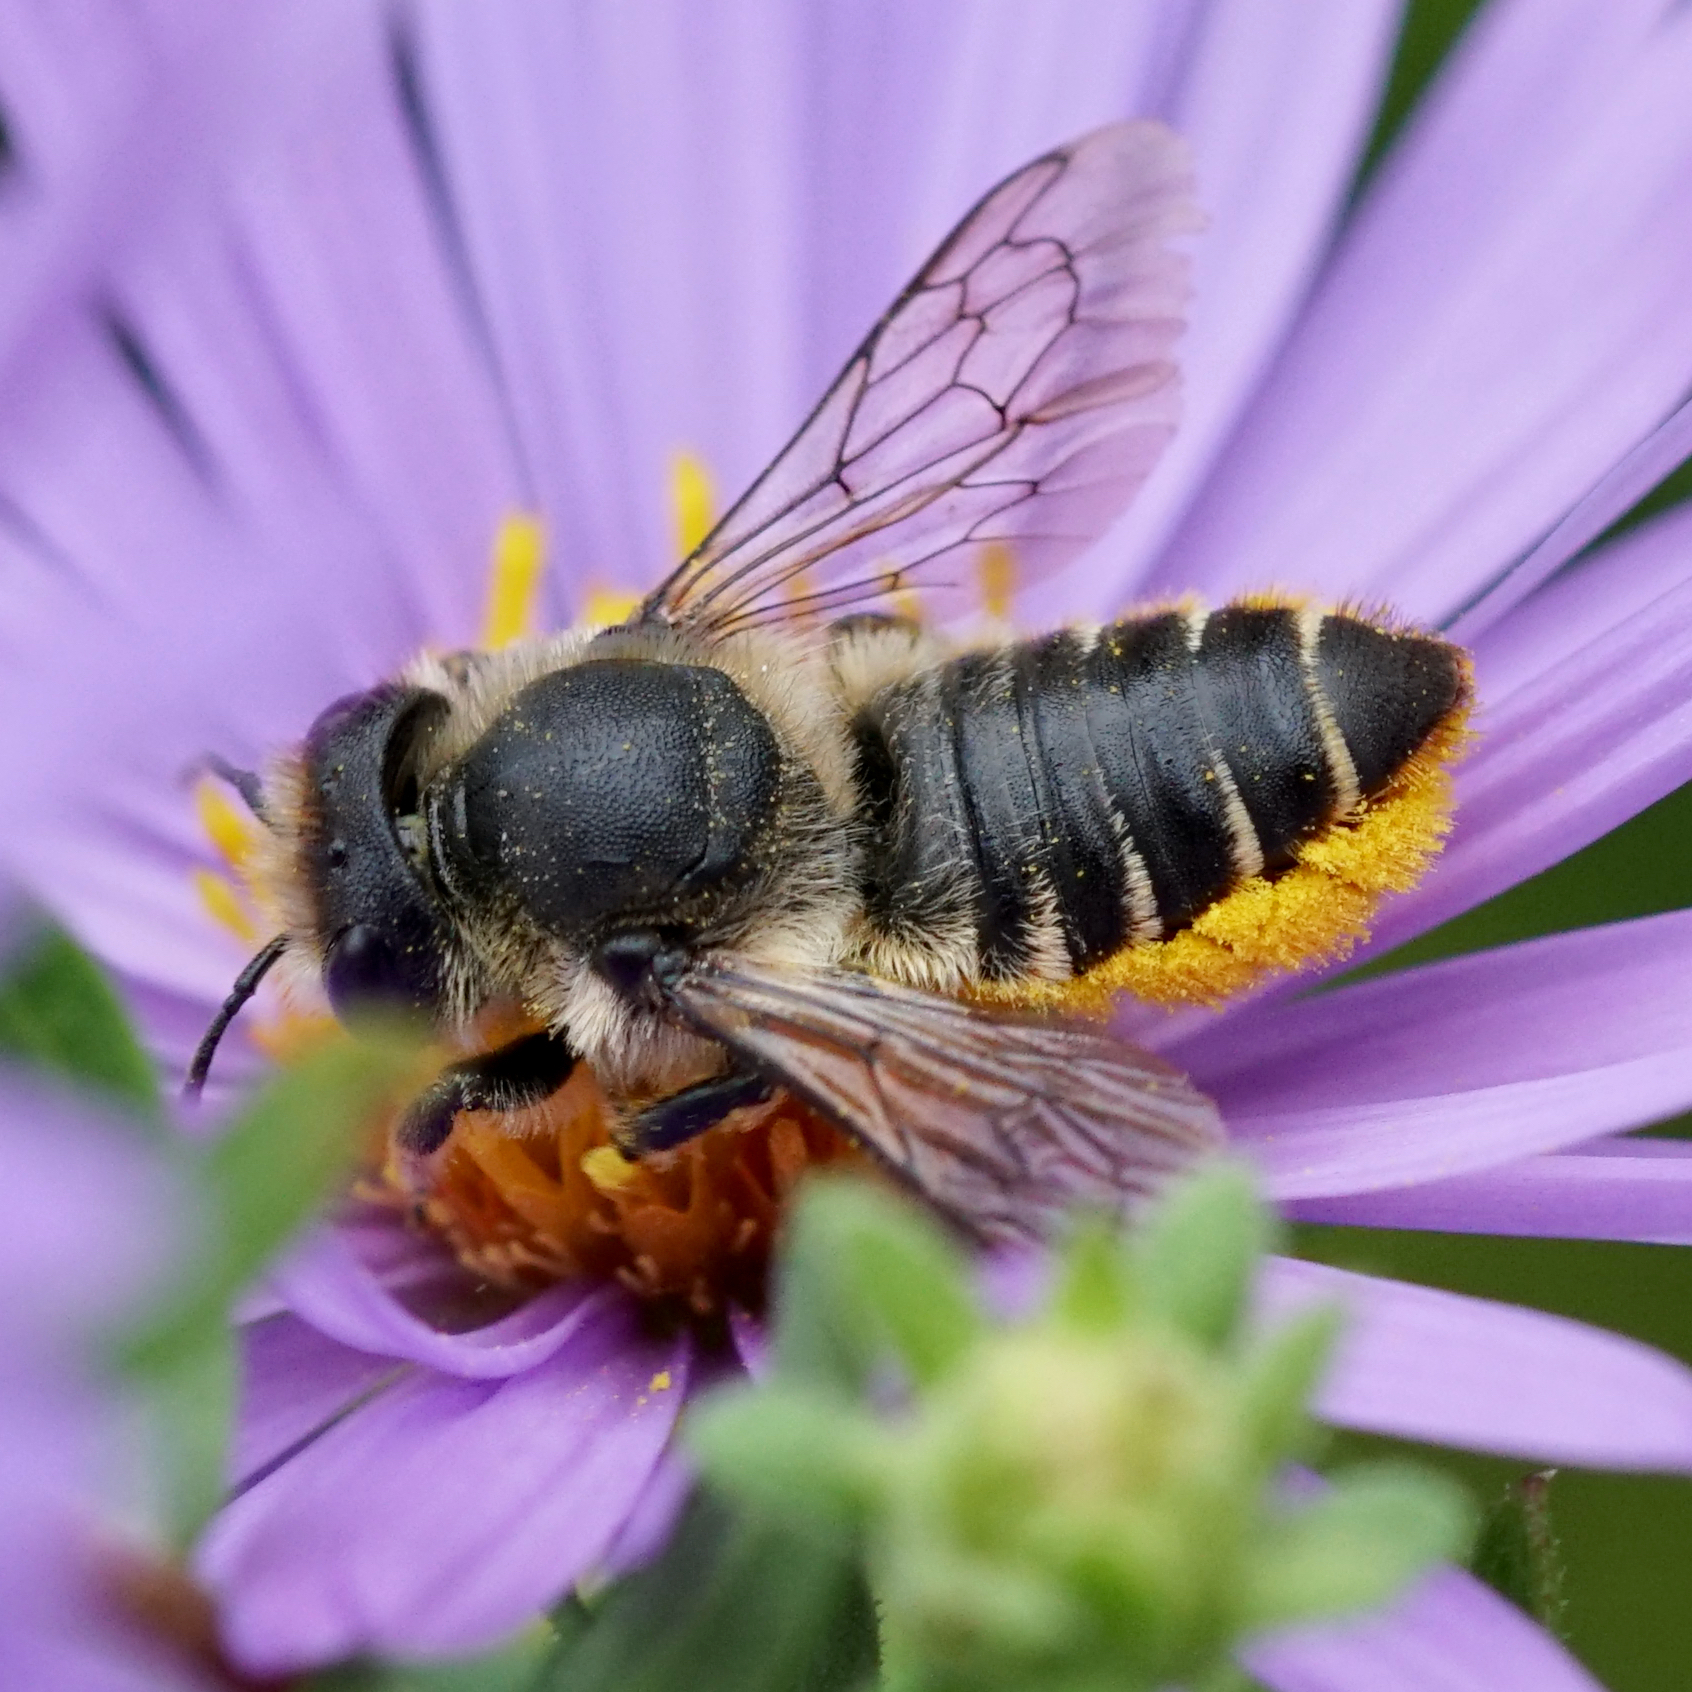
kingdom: Animalia
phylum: Arthropoda
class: Insecta
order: Hymenoptera
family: Megachilidae
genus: Megachile
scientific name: Megachile centuncularis
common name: Patchwork leafcutter bee
